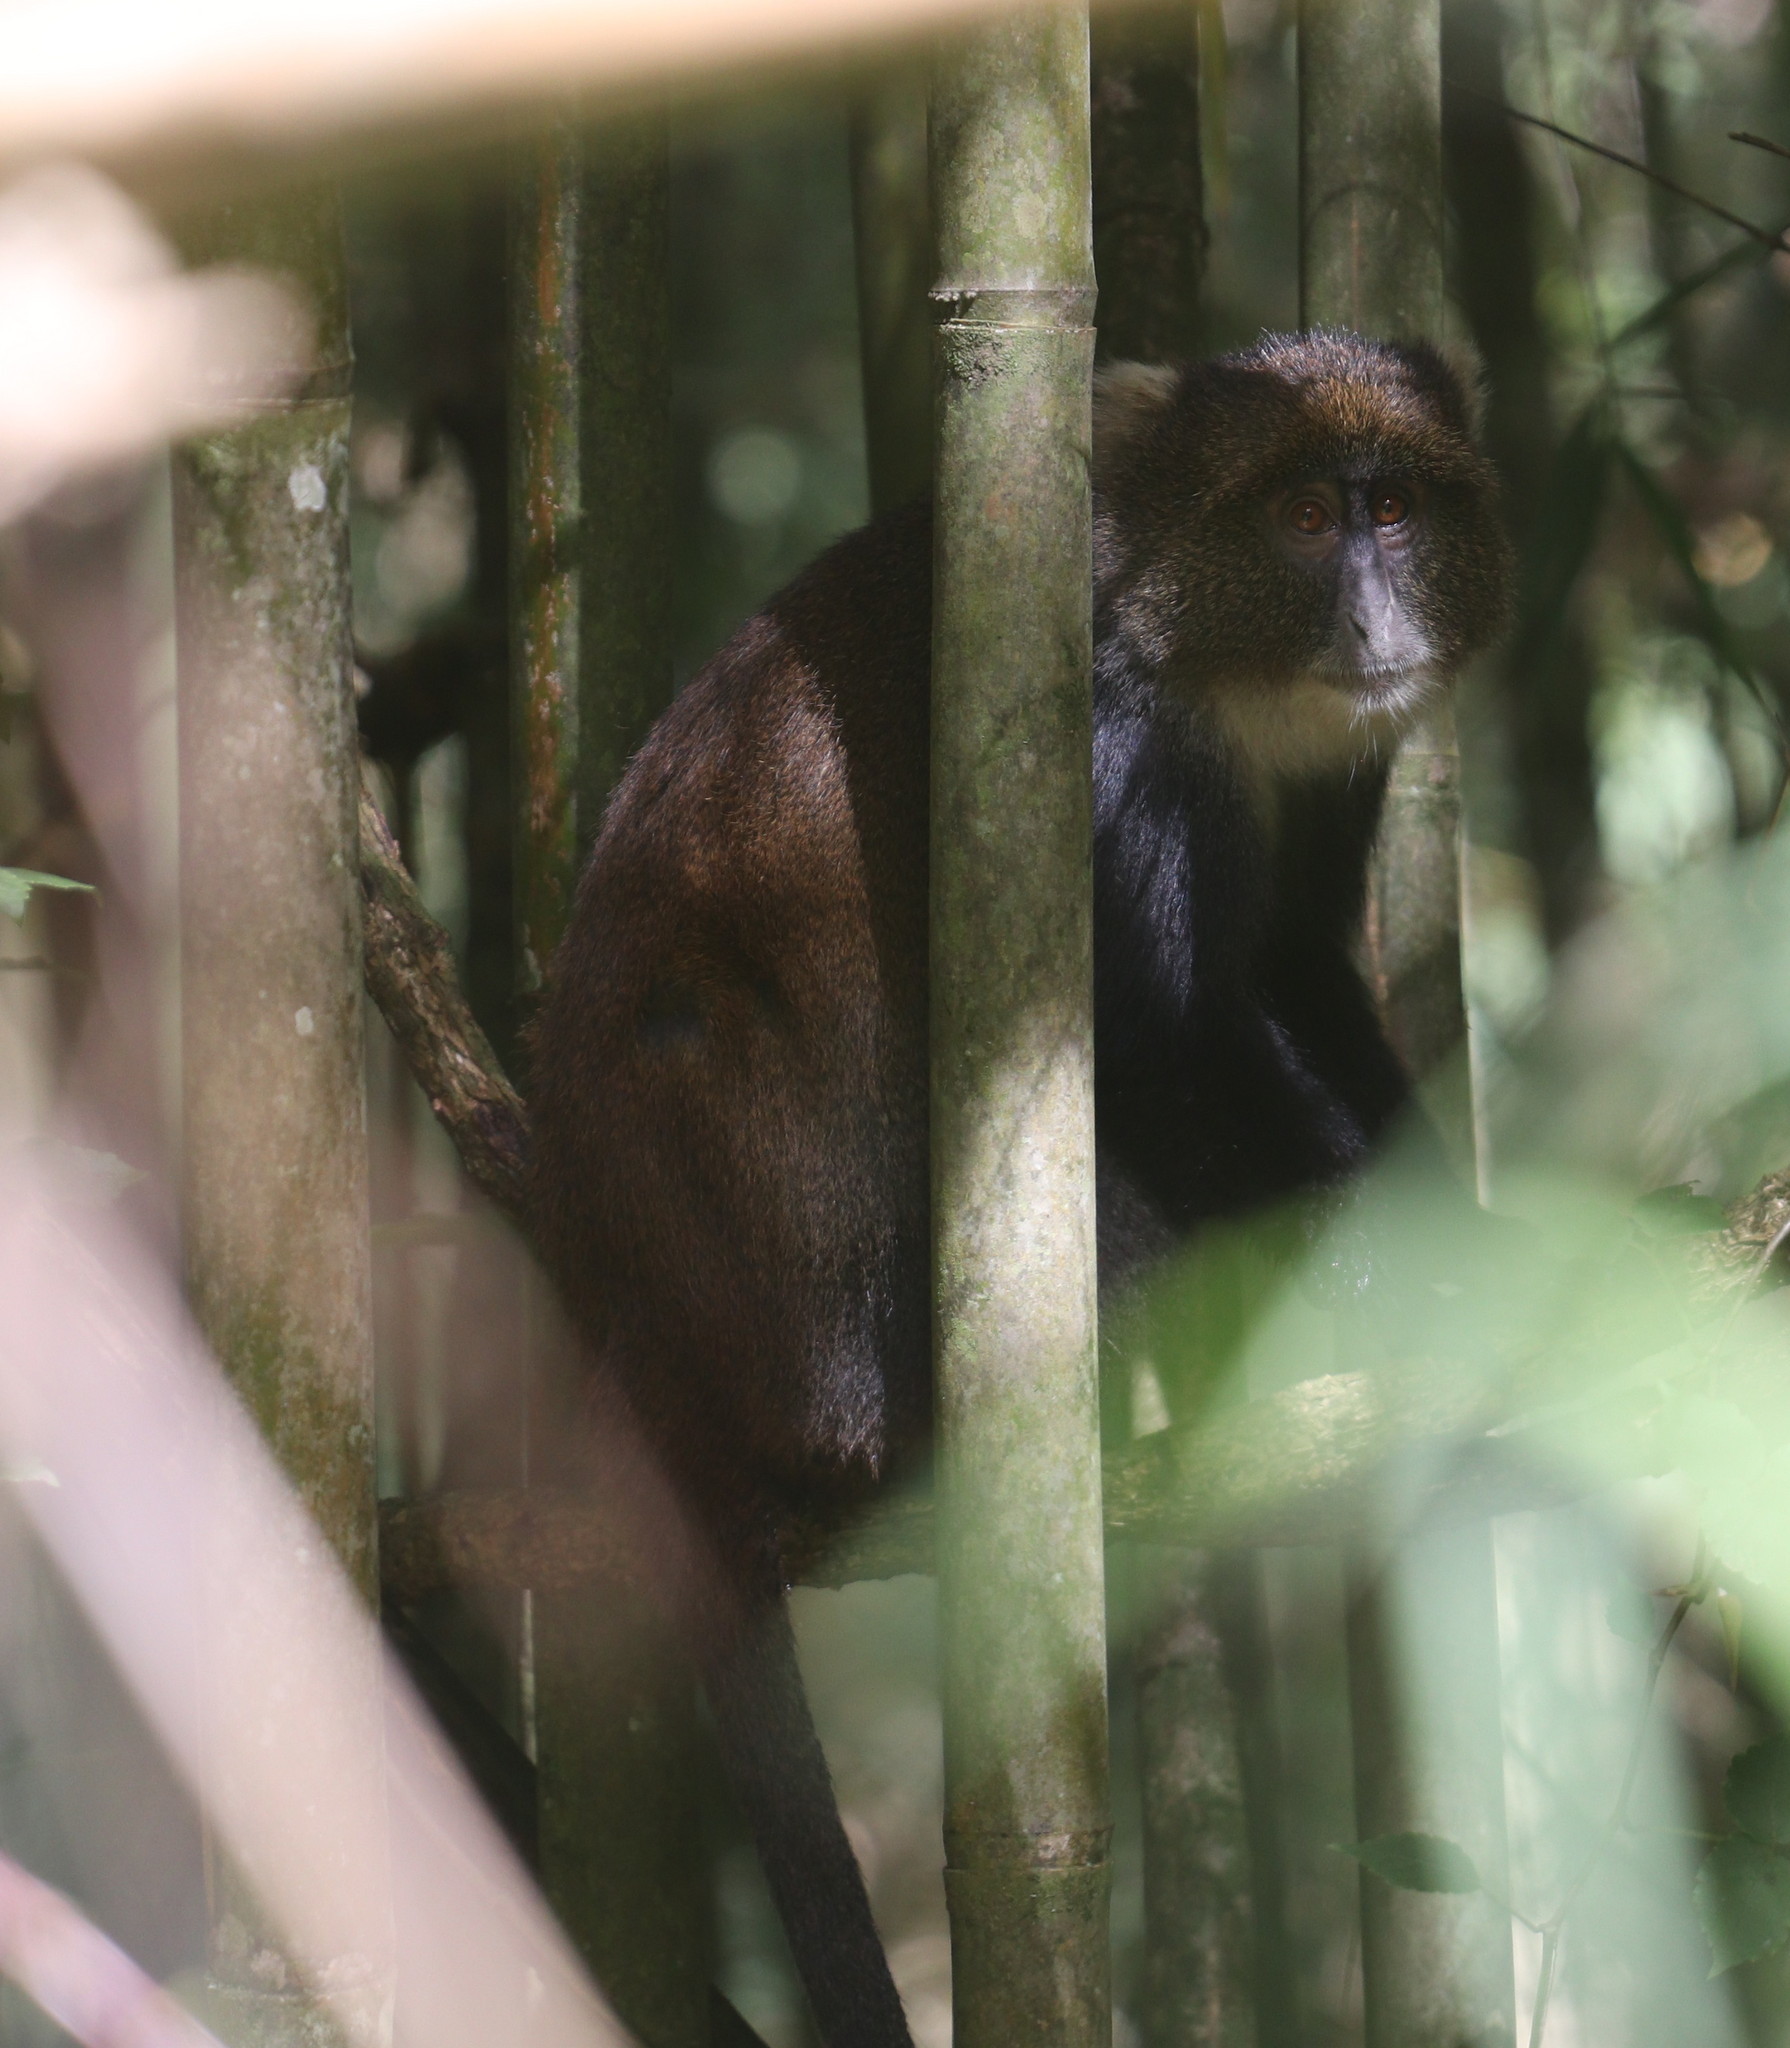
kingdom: Animalia
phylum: Chordata
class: Mammalia
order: Primates
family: Cercopithecidae
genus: Cercopithecus
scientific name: Cercopithecus mitis
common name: Blue monkey
